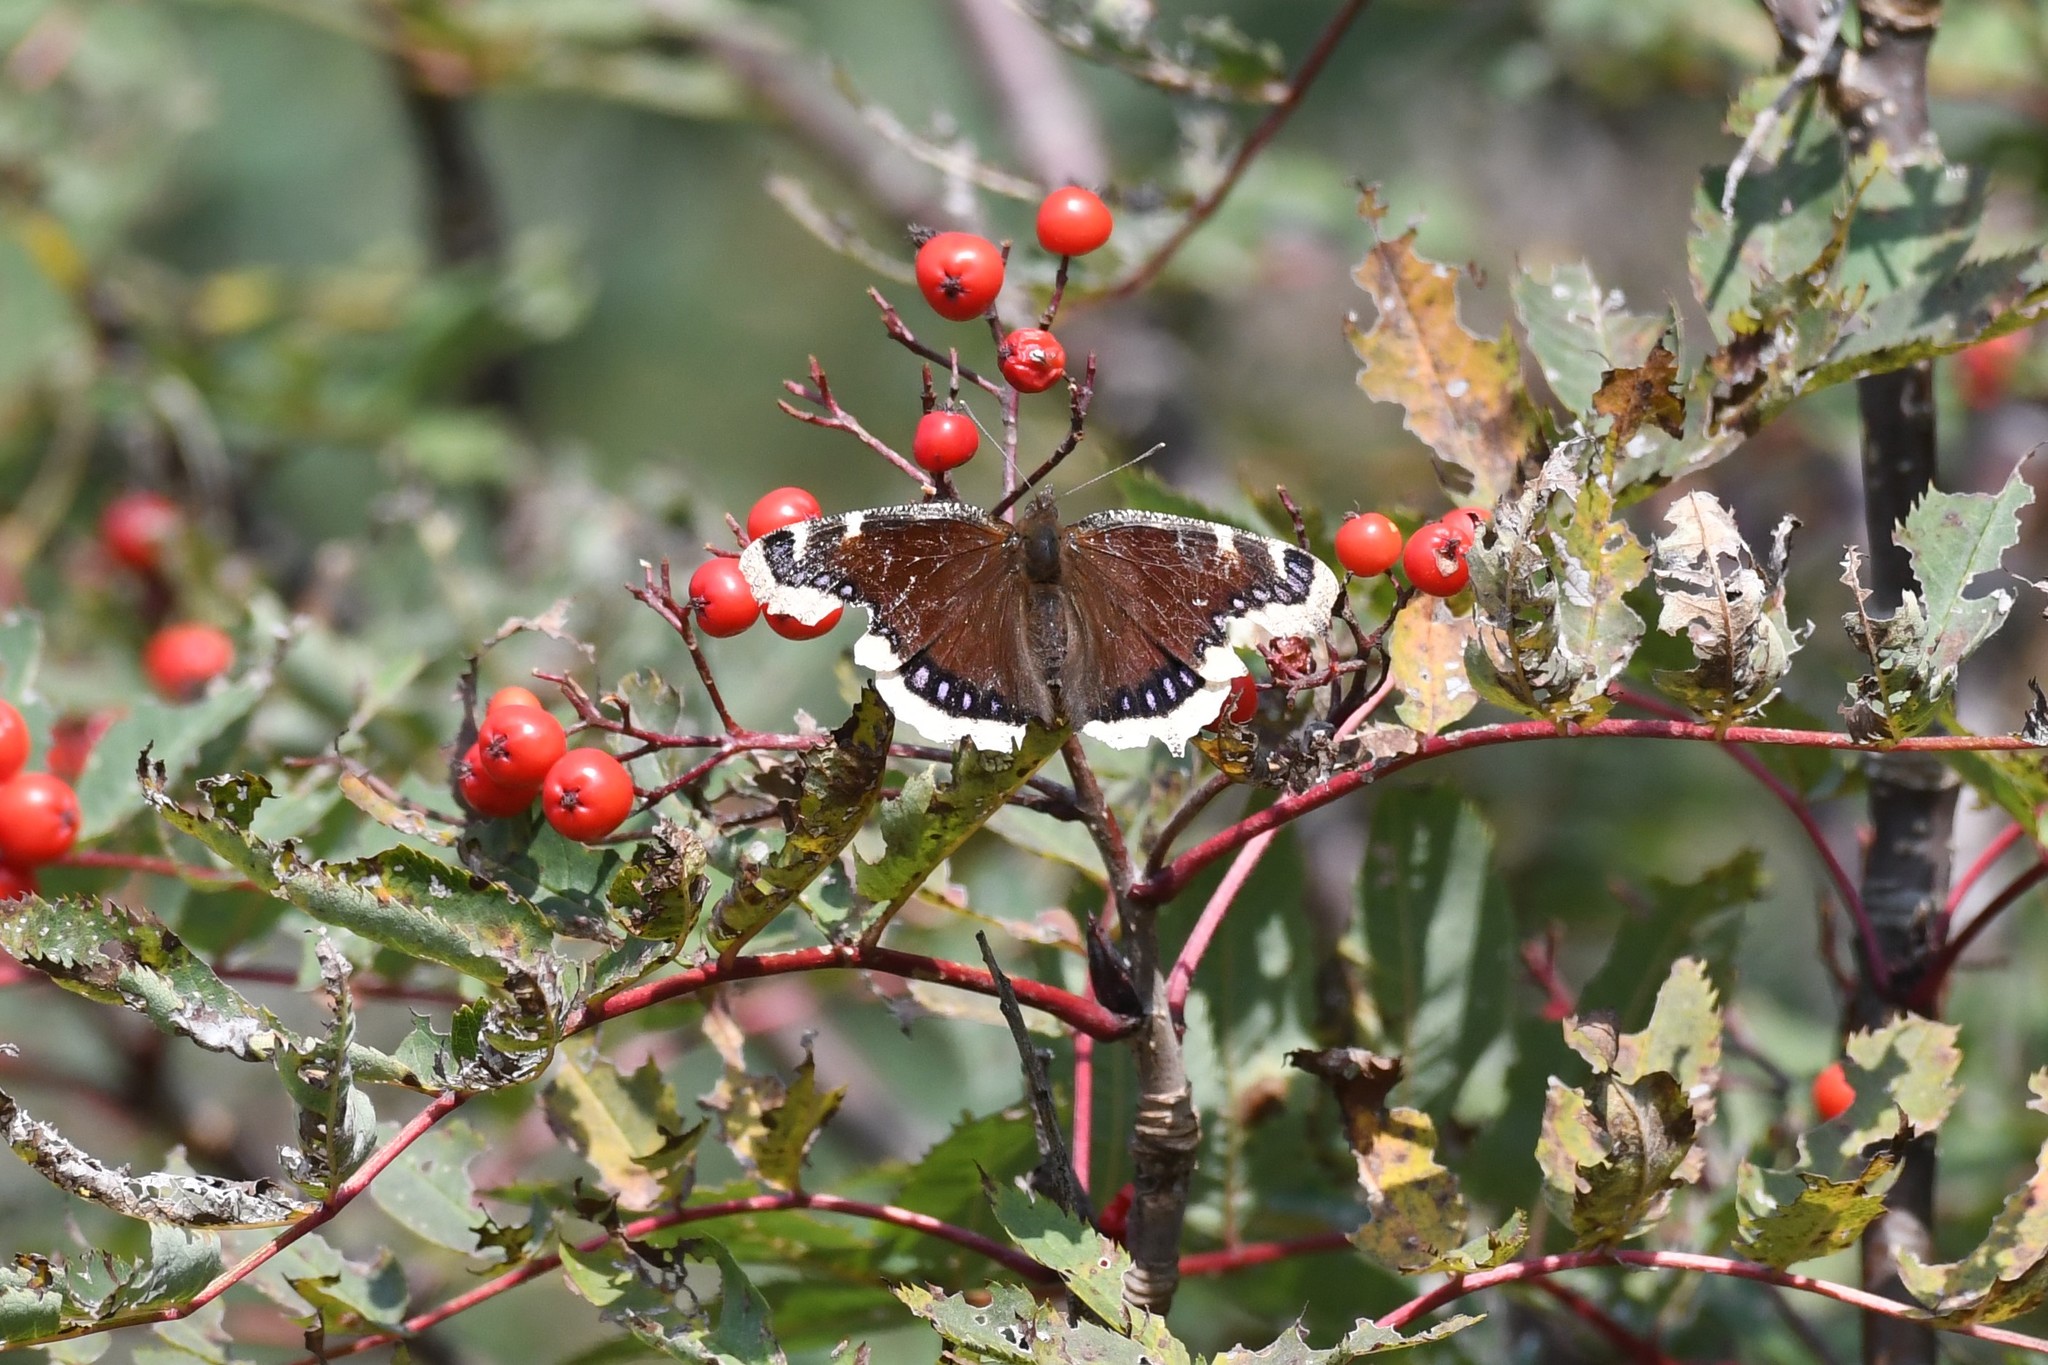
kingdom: Animalia
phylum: Arthropoda
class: Insecta
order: Lepidoptera
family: Nymphalidae
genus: Nymphalis
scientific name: Nymphalis antiopa
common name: Camberwell beauty
